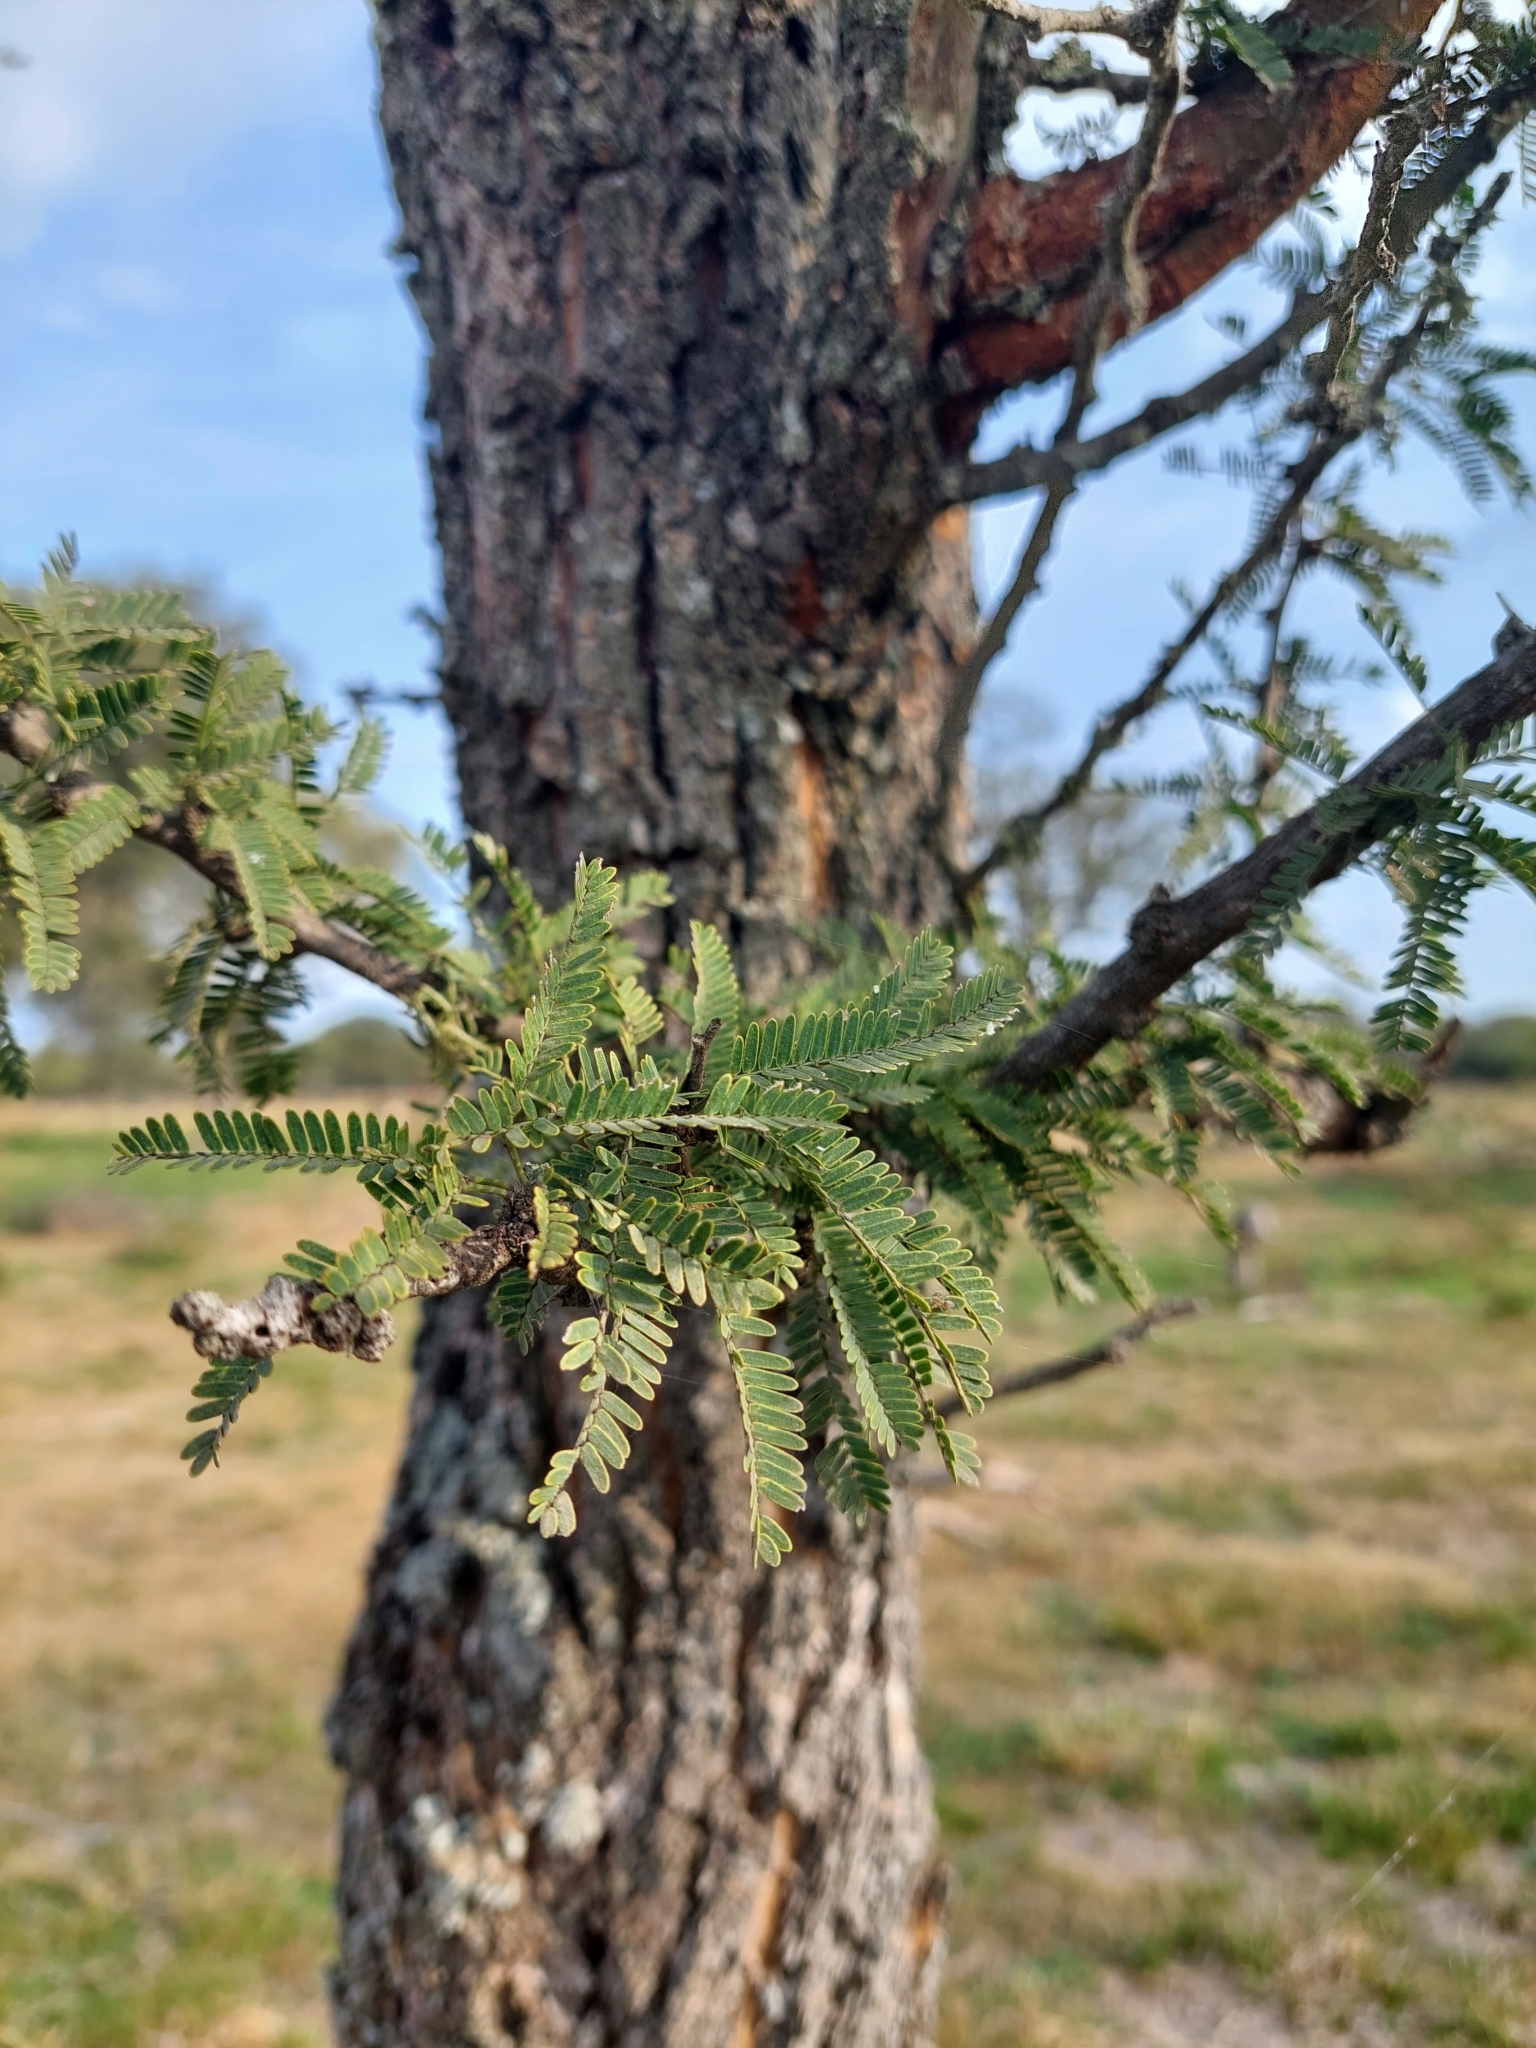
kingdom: Plantae
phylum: Tracheophyta
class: Magnoliopsida
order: Fabales
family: Fabaceae
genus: Prosopis
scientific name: Prosopis affinis
